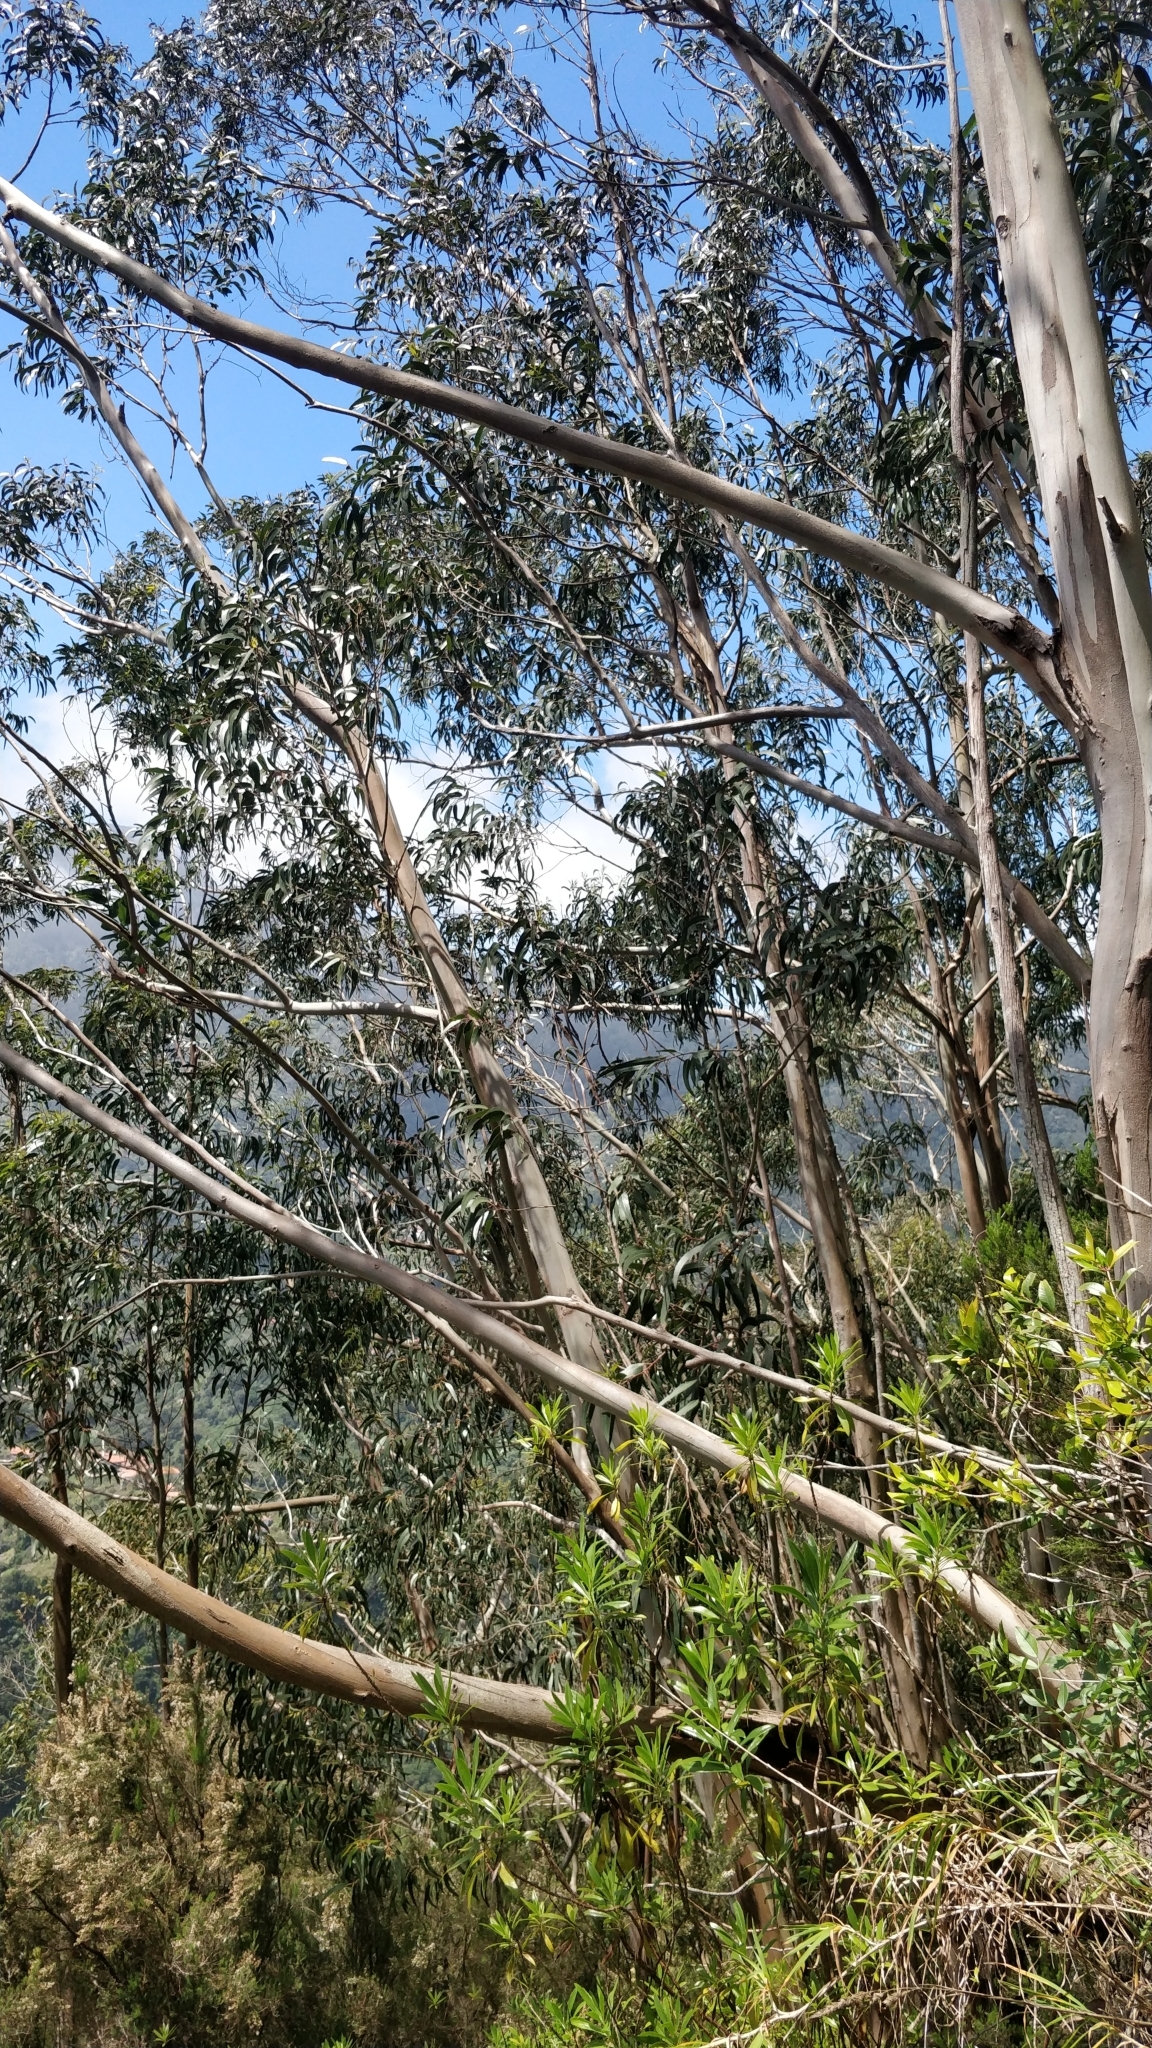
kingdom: Plantae
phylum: Tracheophyta
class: Magnoliopsida
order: Myrtales
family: Myrtaceae
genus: Eucalyptus
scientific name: Eucalyptus globulus
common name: Southern blue-gum
